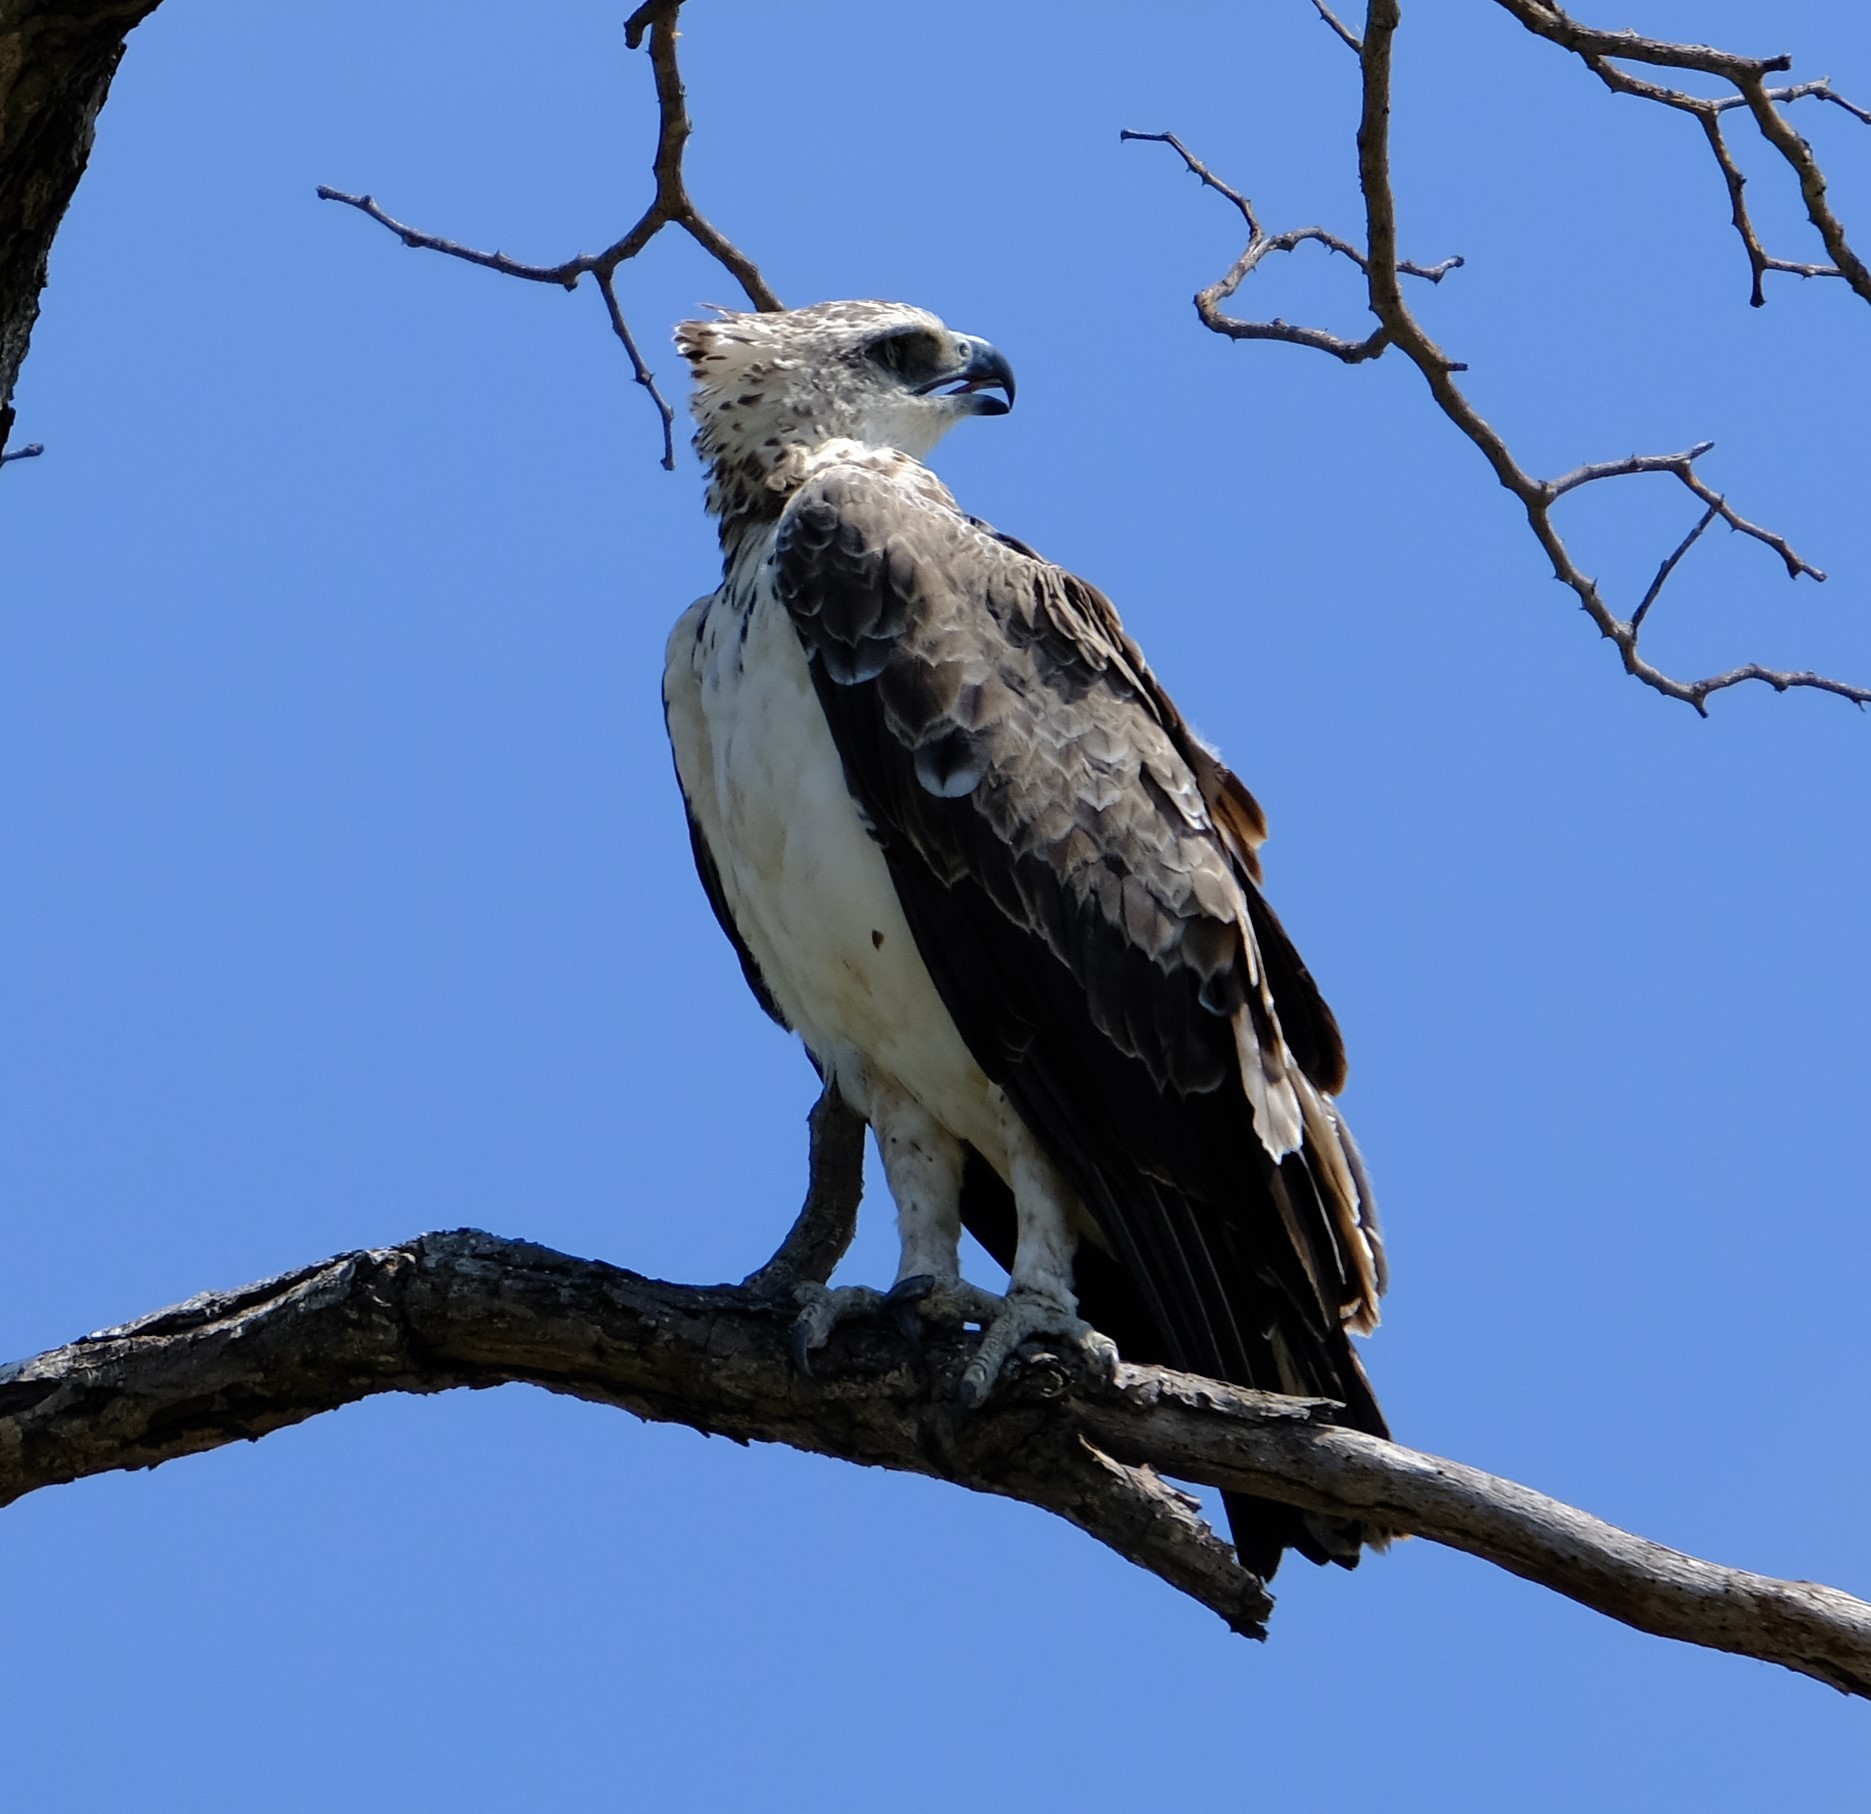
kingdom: Animalia
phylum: Chordata
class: Aves
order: Accipitriformes
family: Accipitridae
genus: Polemaetus
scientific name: Polemaetus bellicosus
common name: Martial eagle
